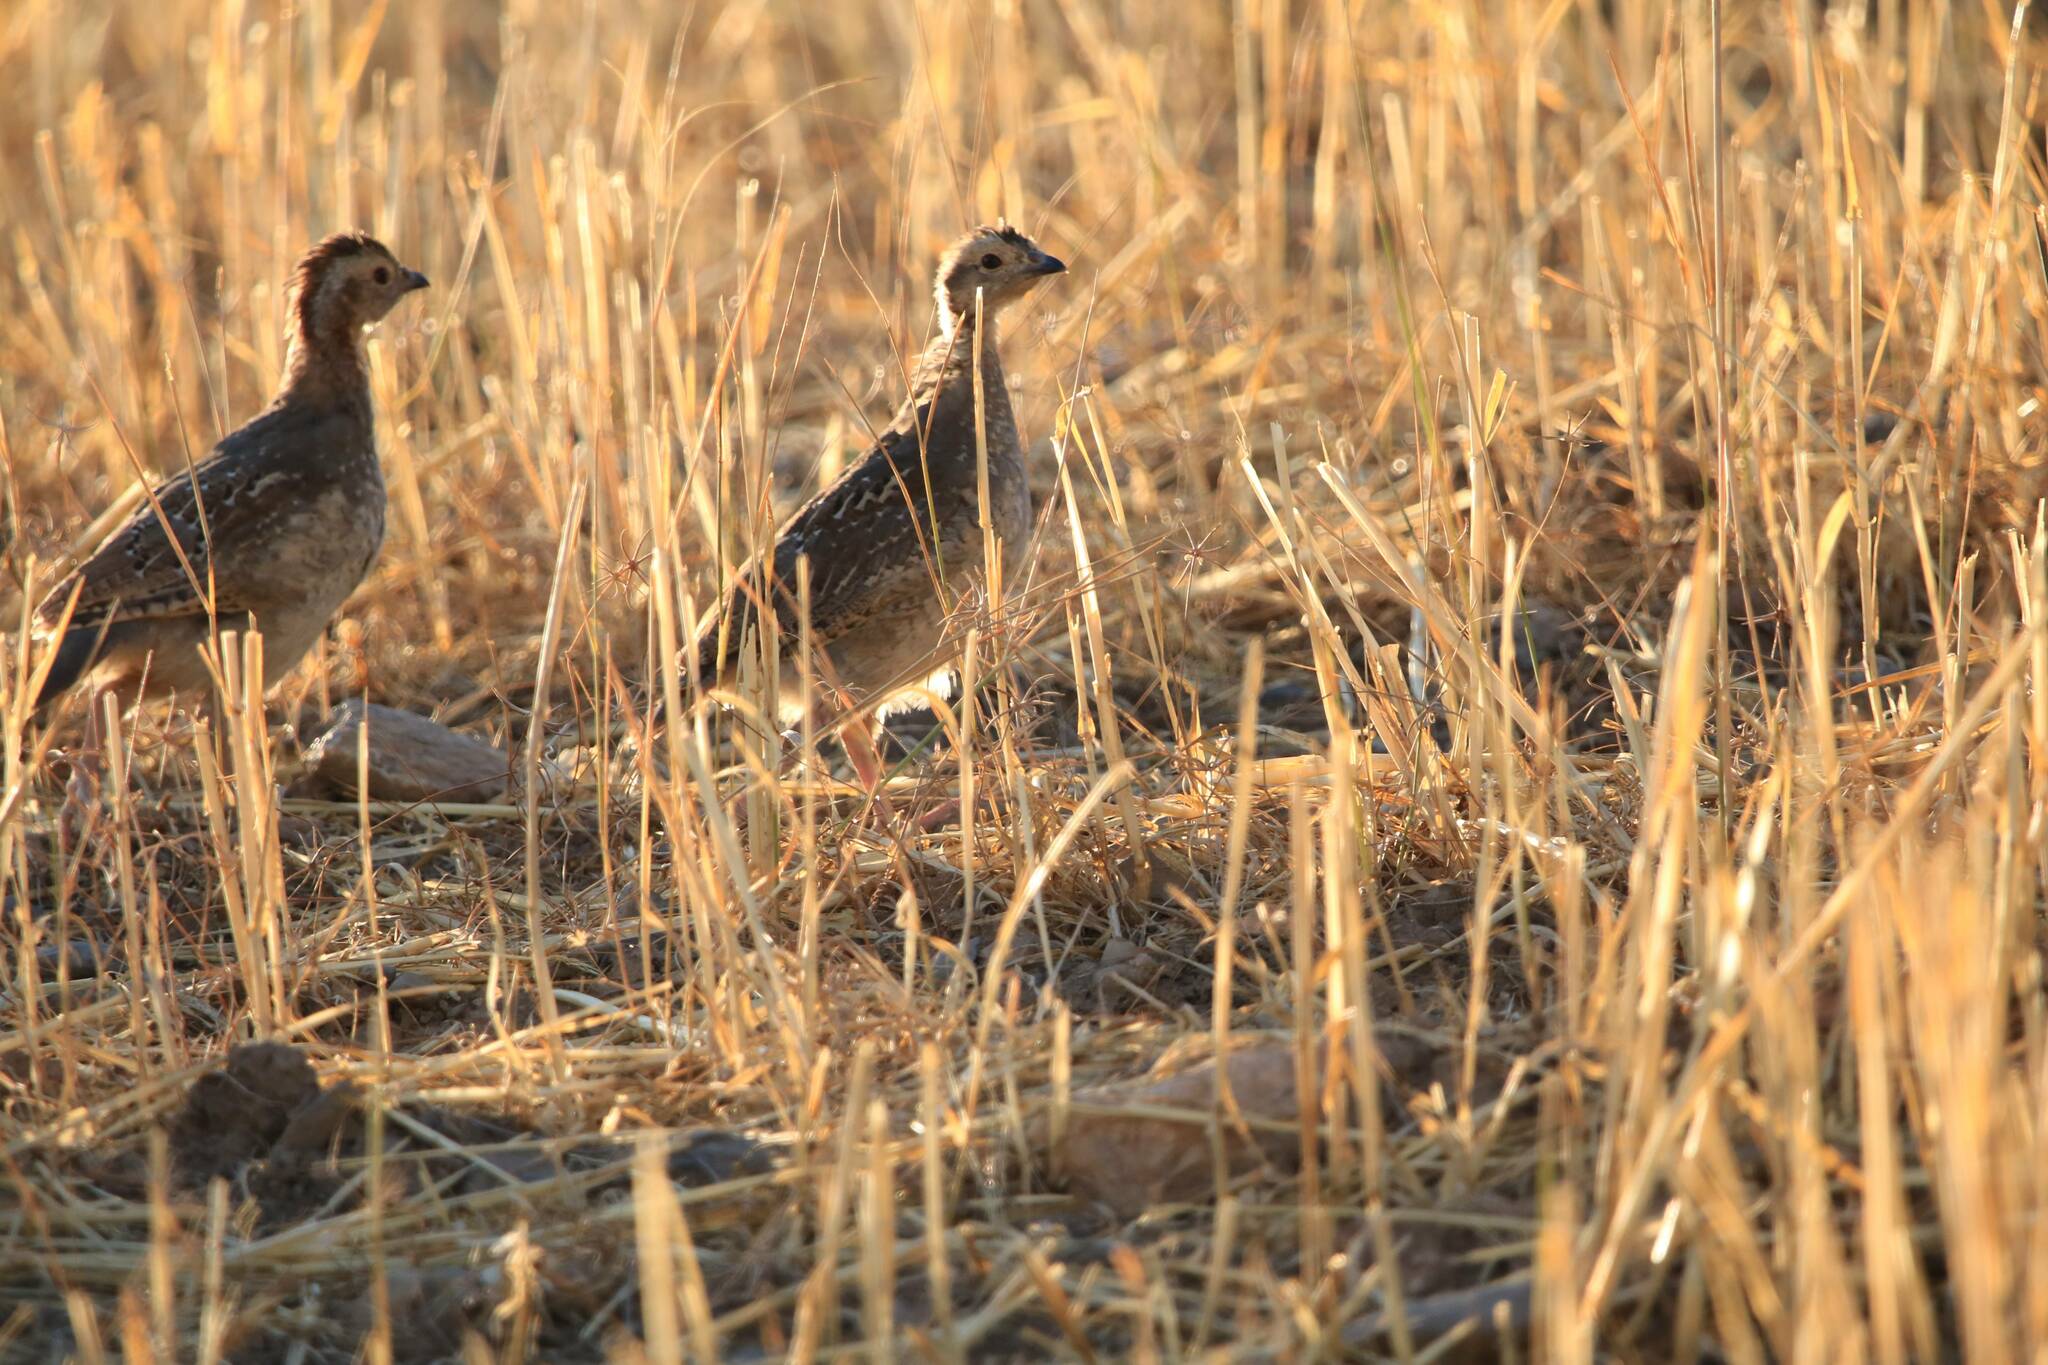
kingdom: Animalia
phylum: Chordata
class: Aves
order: Galliformes
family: Phasianidae
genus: Alectoris
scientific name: Alectoris barbara
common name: Barbary partridge
